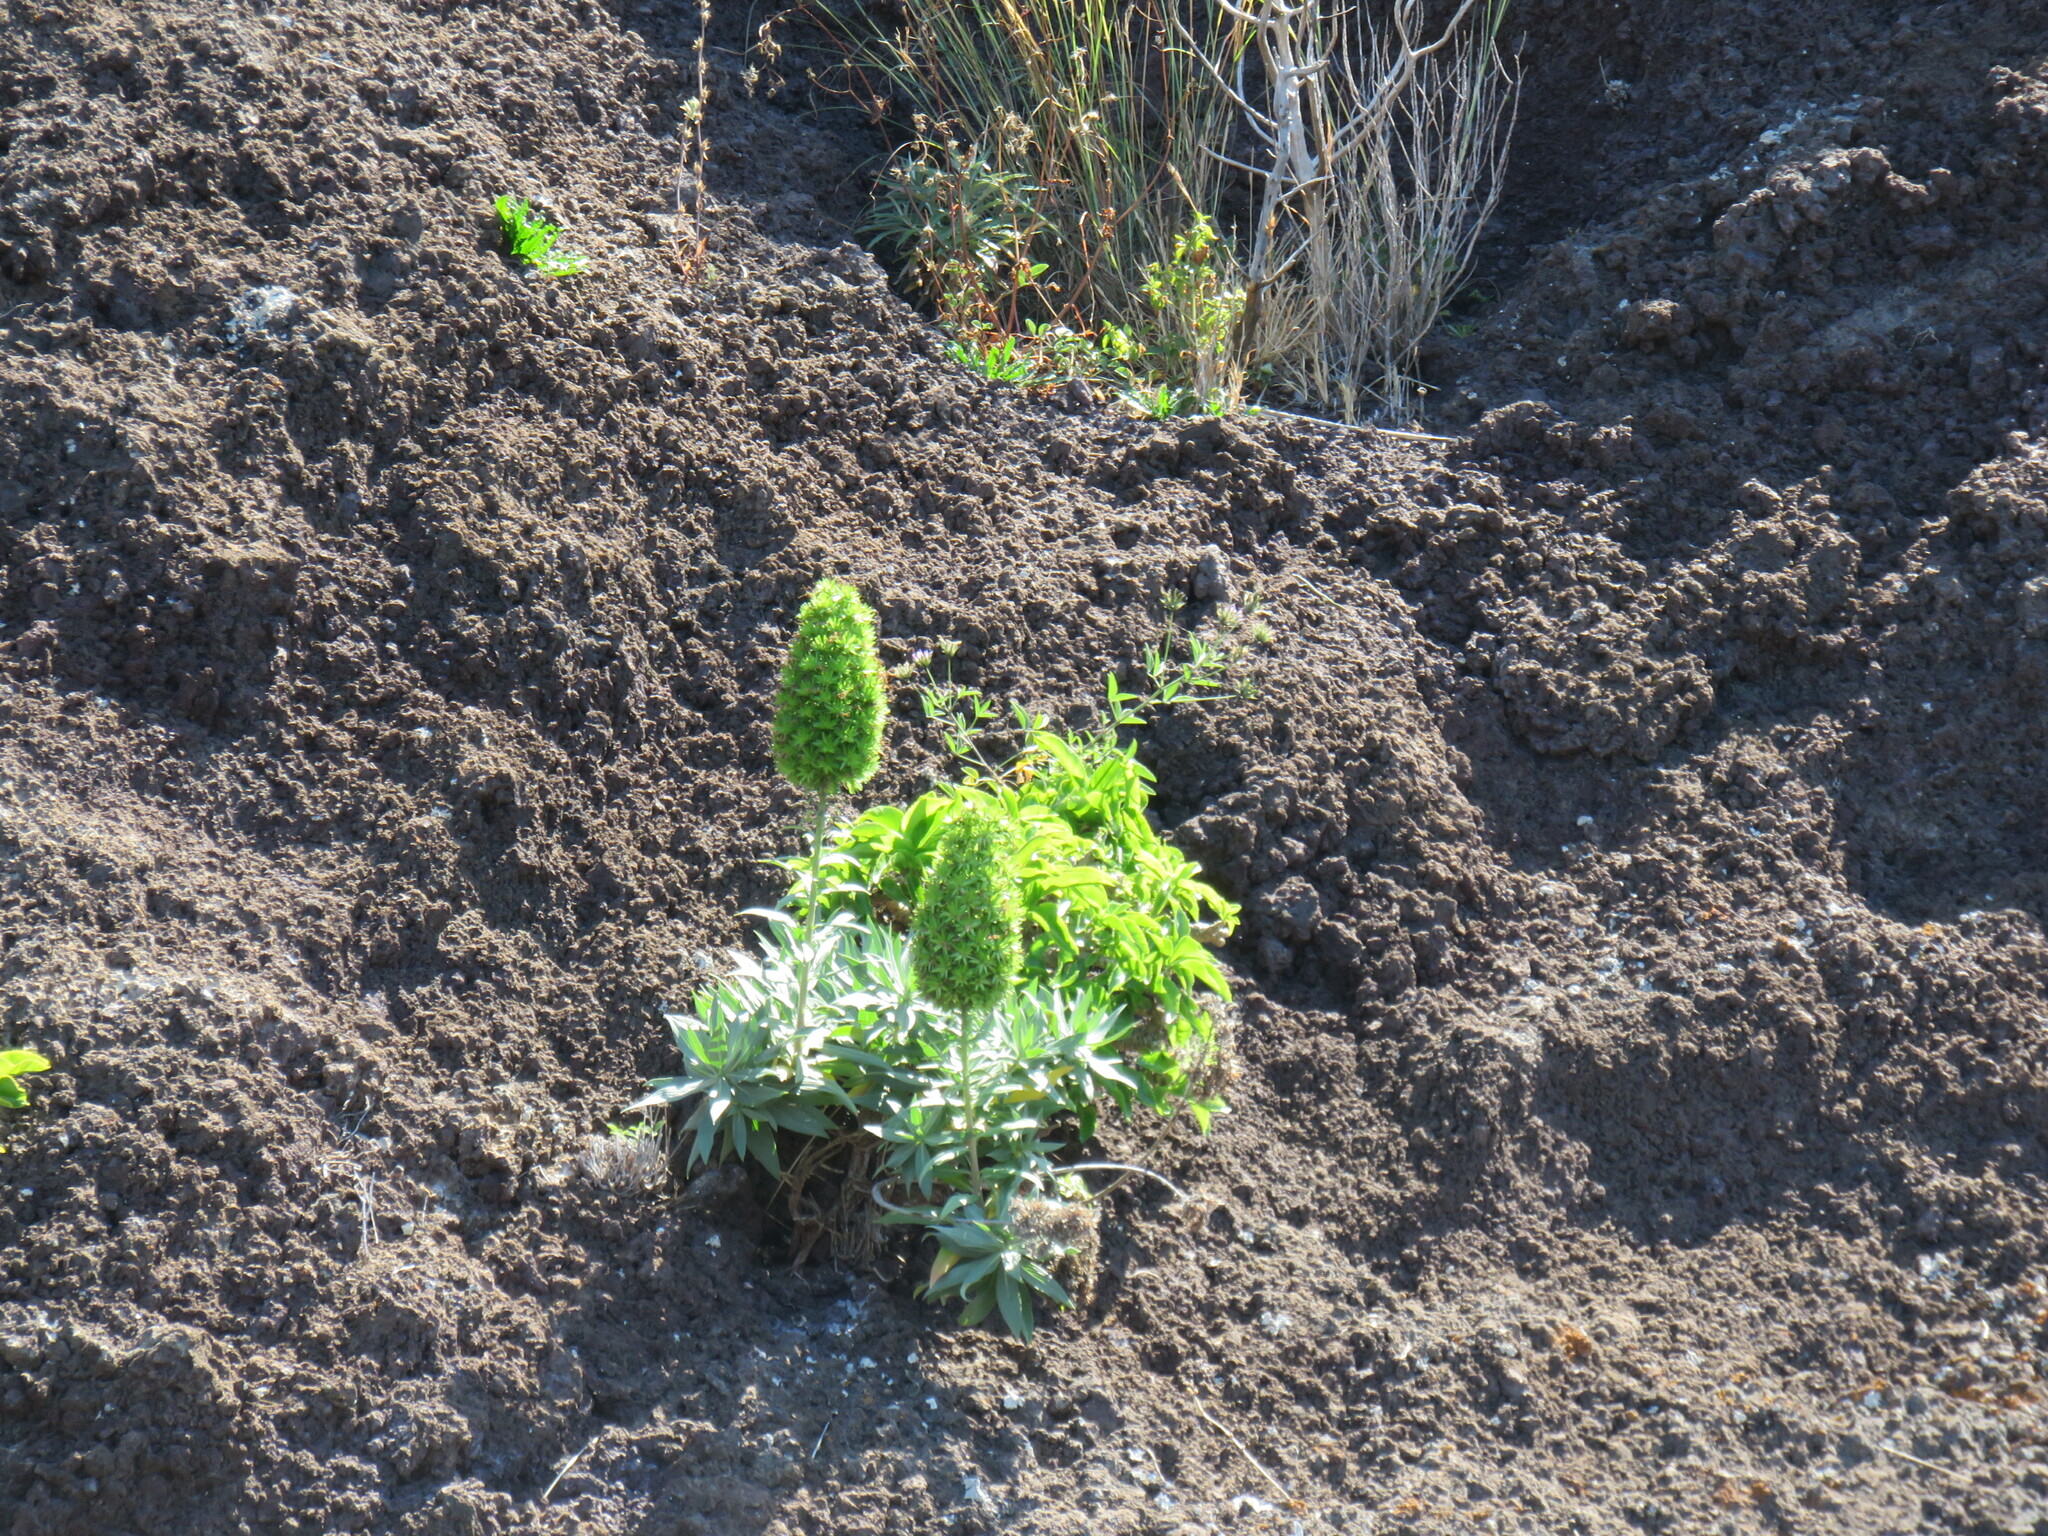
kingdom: Plantae
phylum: Tracheophyta
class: Magnoliopsida
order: Boraginales
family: Boraginaceae
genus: Echium
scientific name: Echium nervosum
